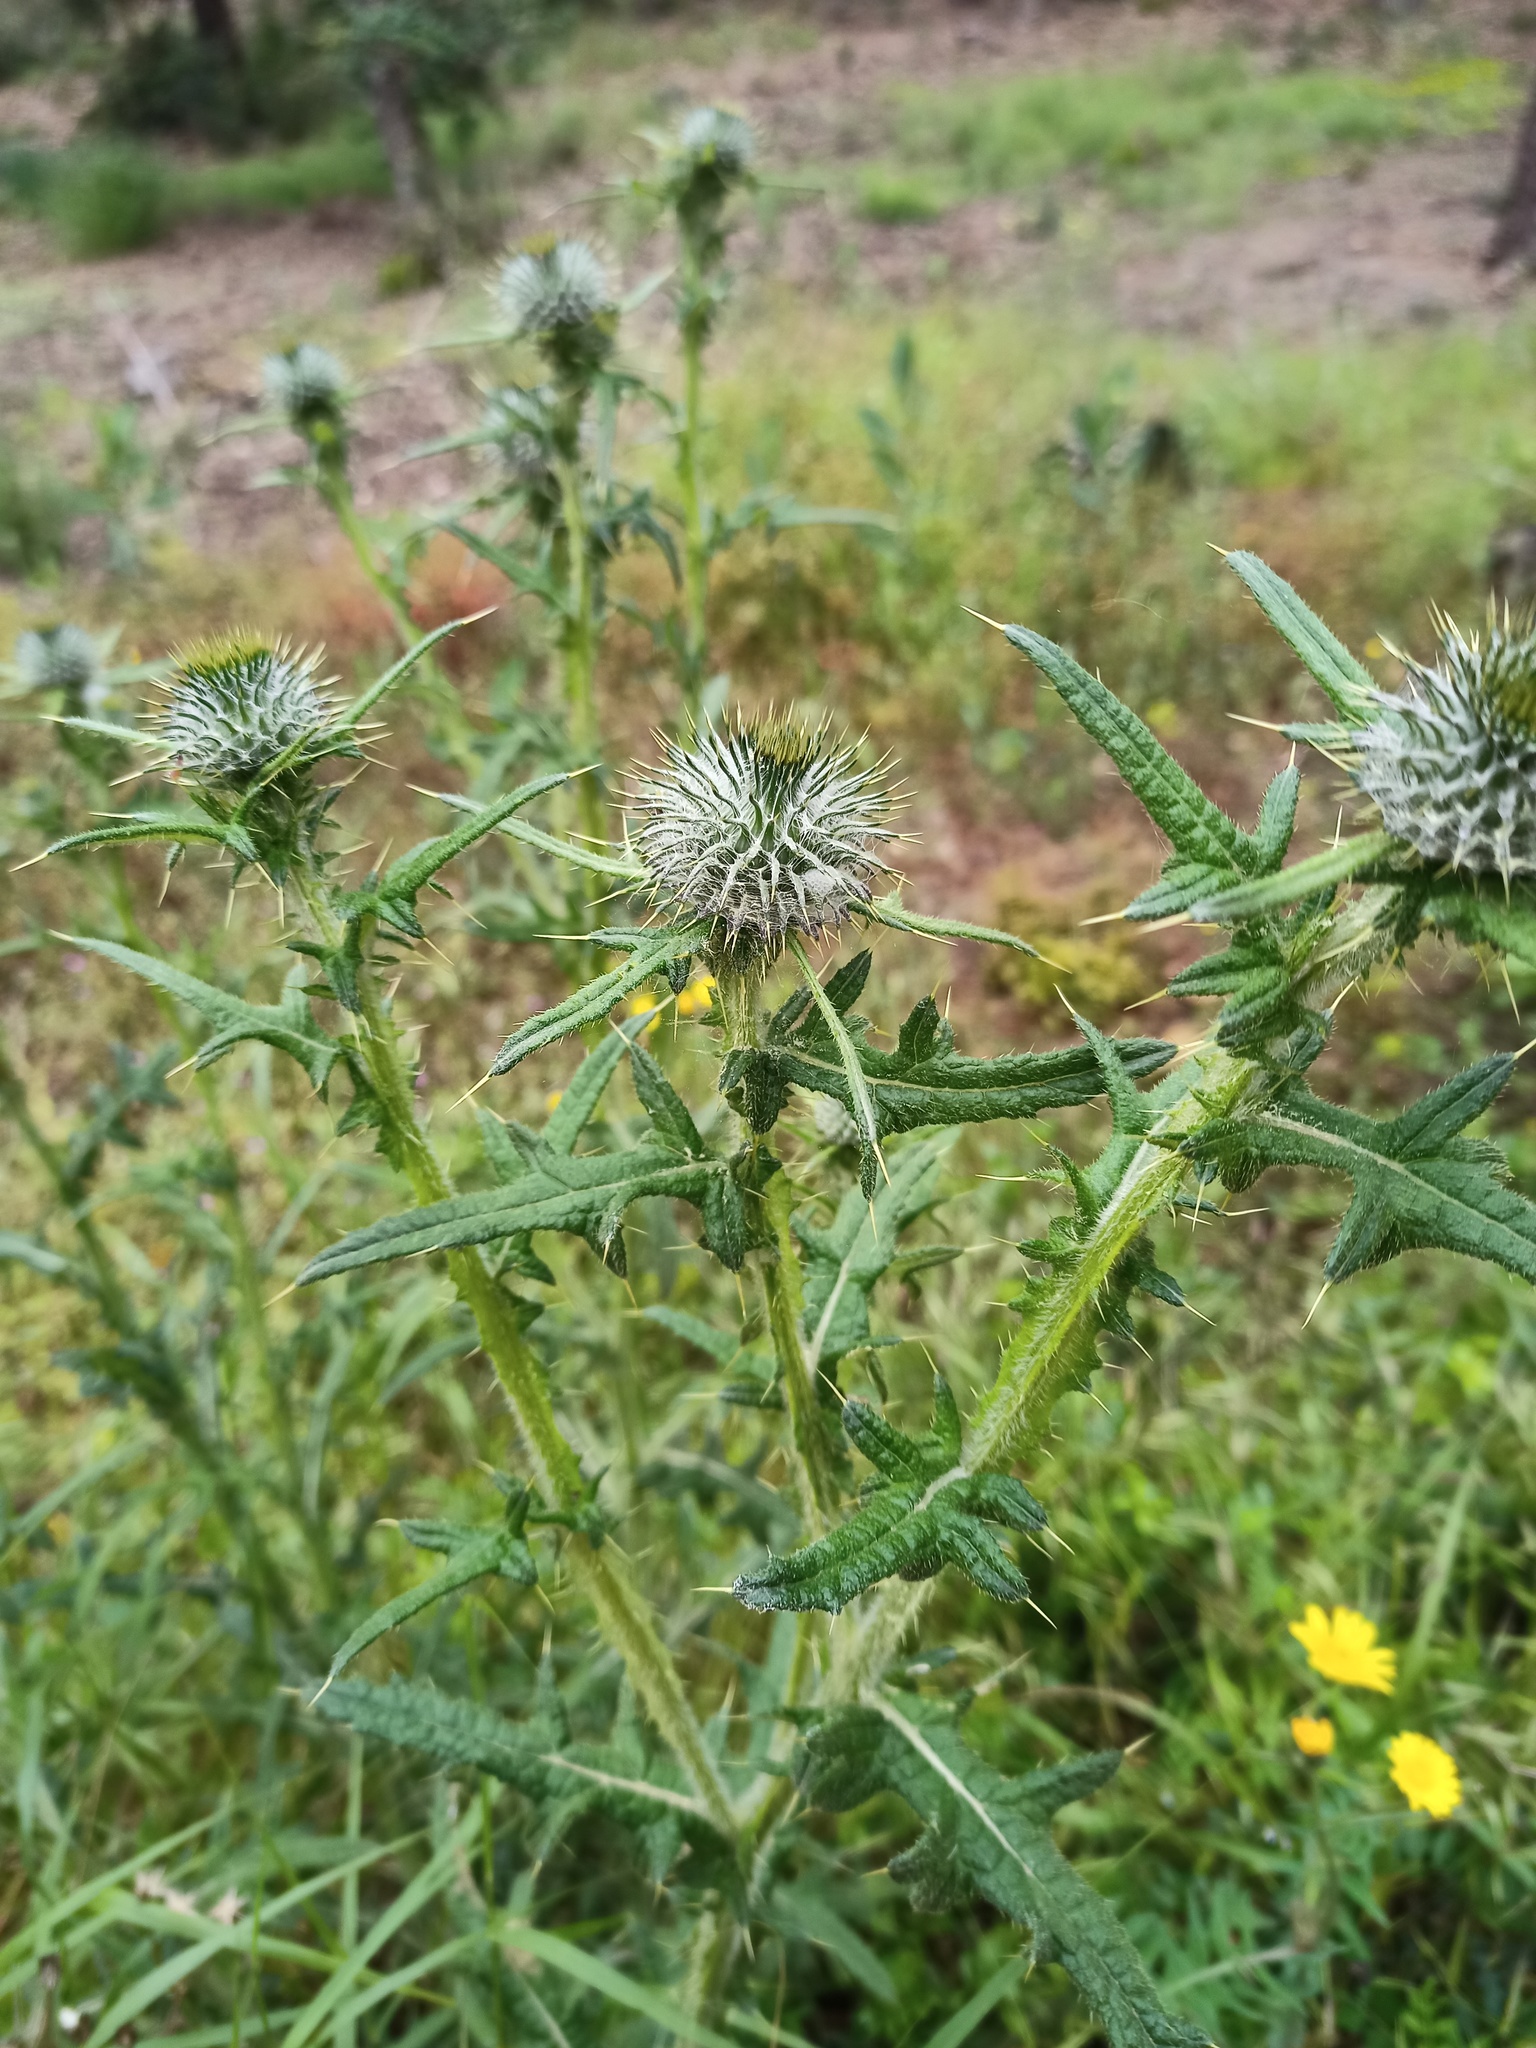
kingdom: Plantae
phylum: Tracheophyta
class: Magnoliopsida
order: Asterales
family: Asteraceae
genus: Cirsium
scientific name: Cirsium vulgare
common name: Bull thistle
